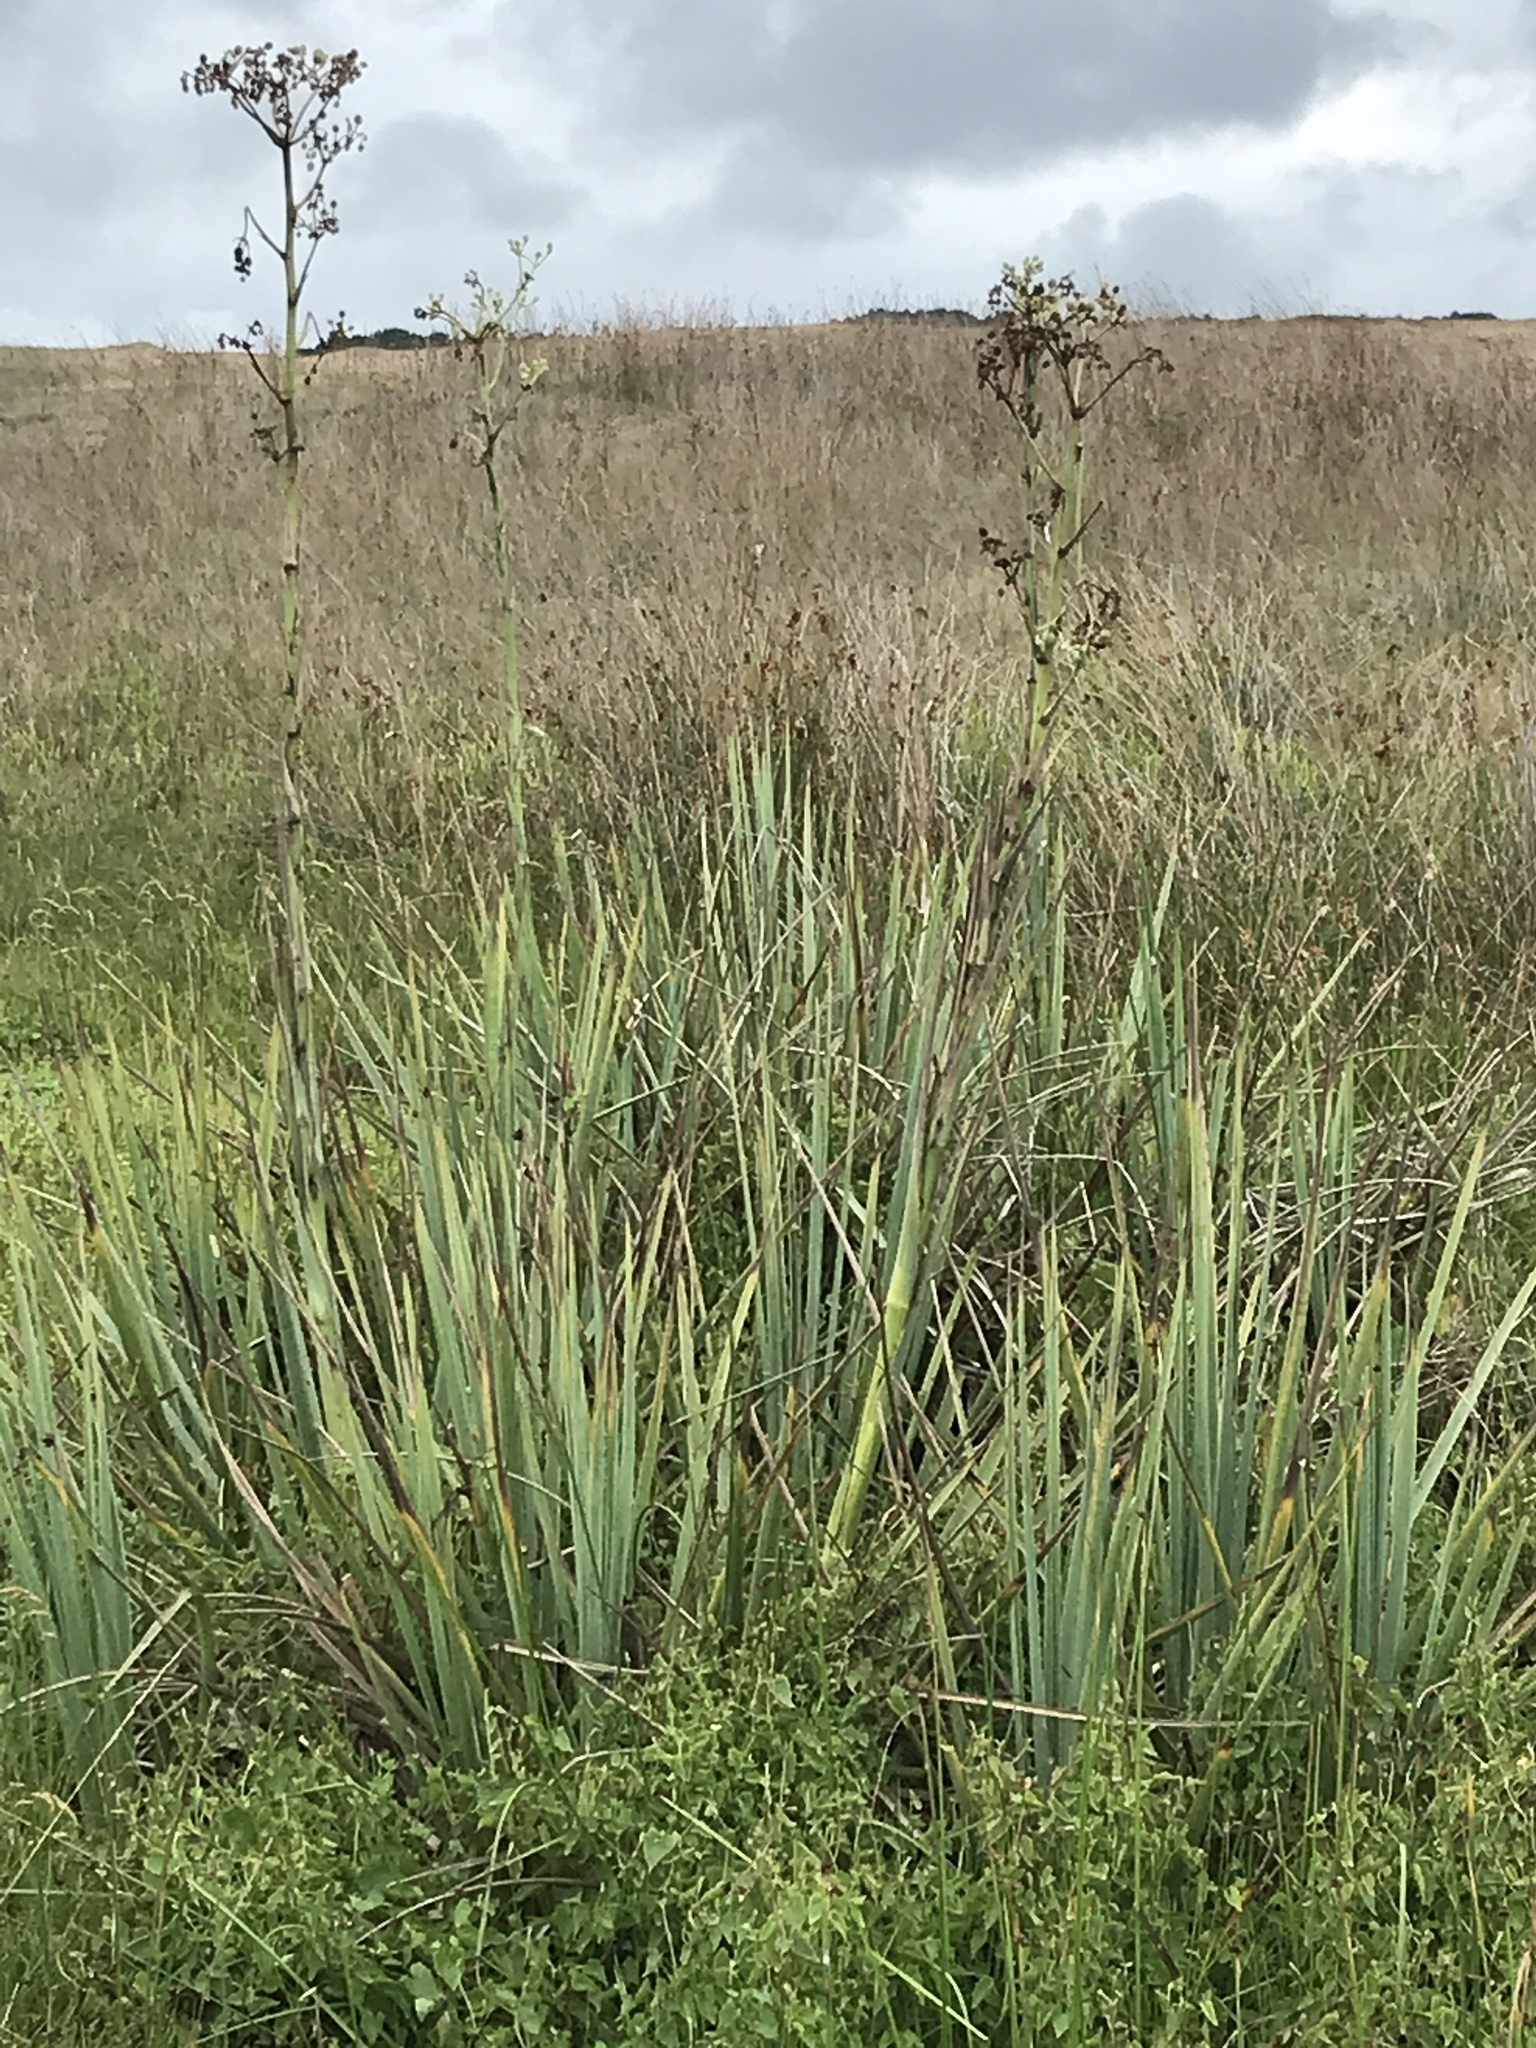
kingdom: Plantae
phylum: Tracheophyta
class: Magnoliopsida
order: Apiales
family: Apiaceae
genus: Eryngium
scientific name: Eryngium pandanifolium
